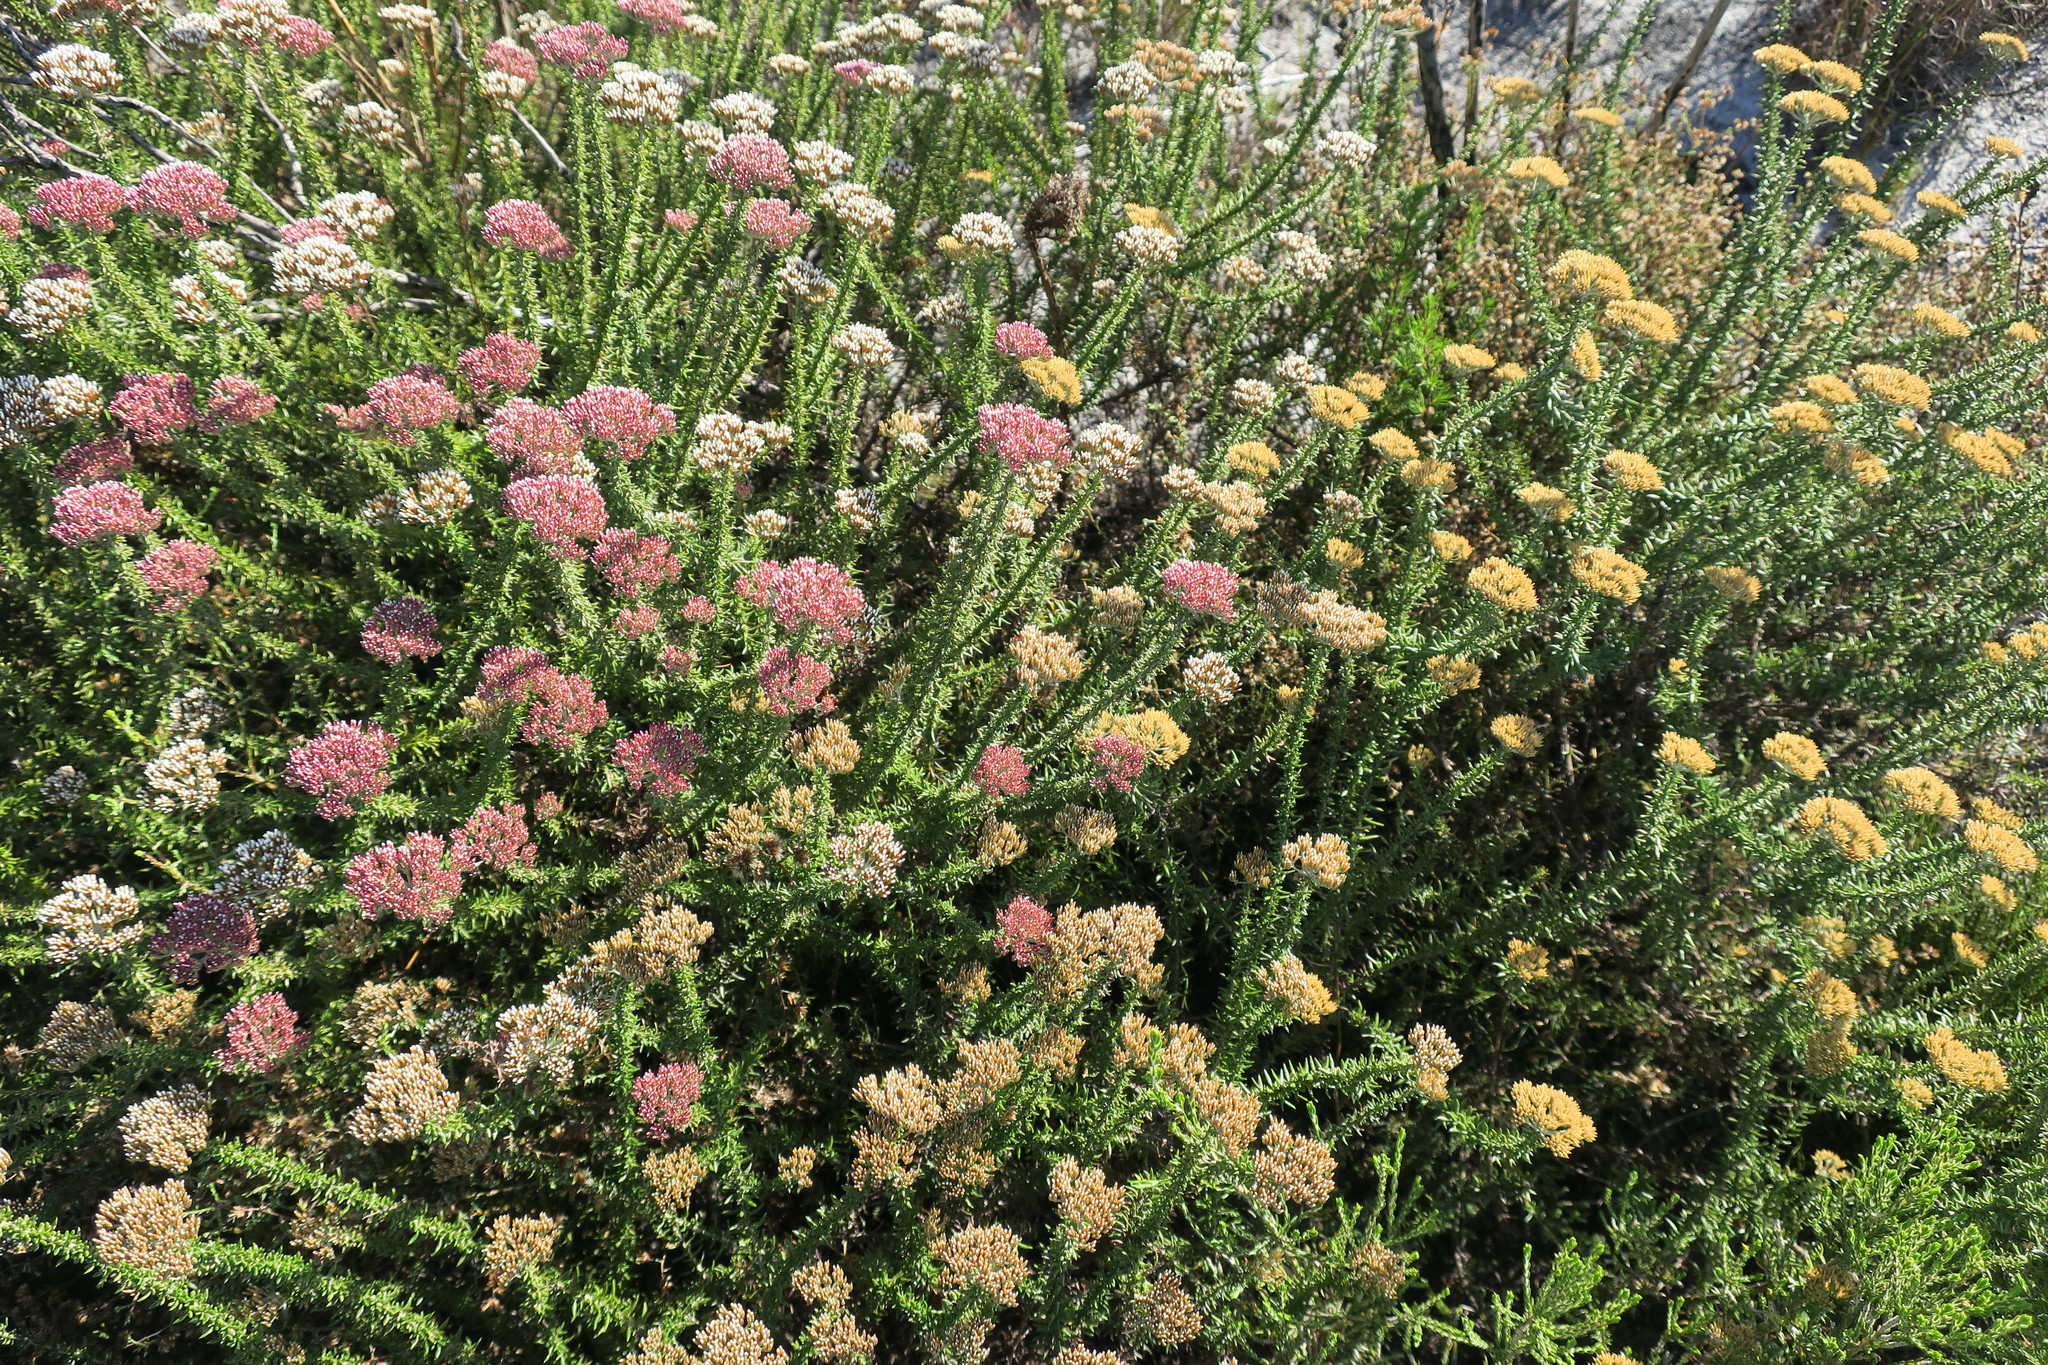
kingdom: Plantae
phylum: Tracheophyta
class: Magnoliopsida
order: Asterales
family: Asteraceae
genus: Metalasia
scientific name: Metalasia densa
